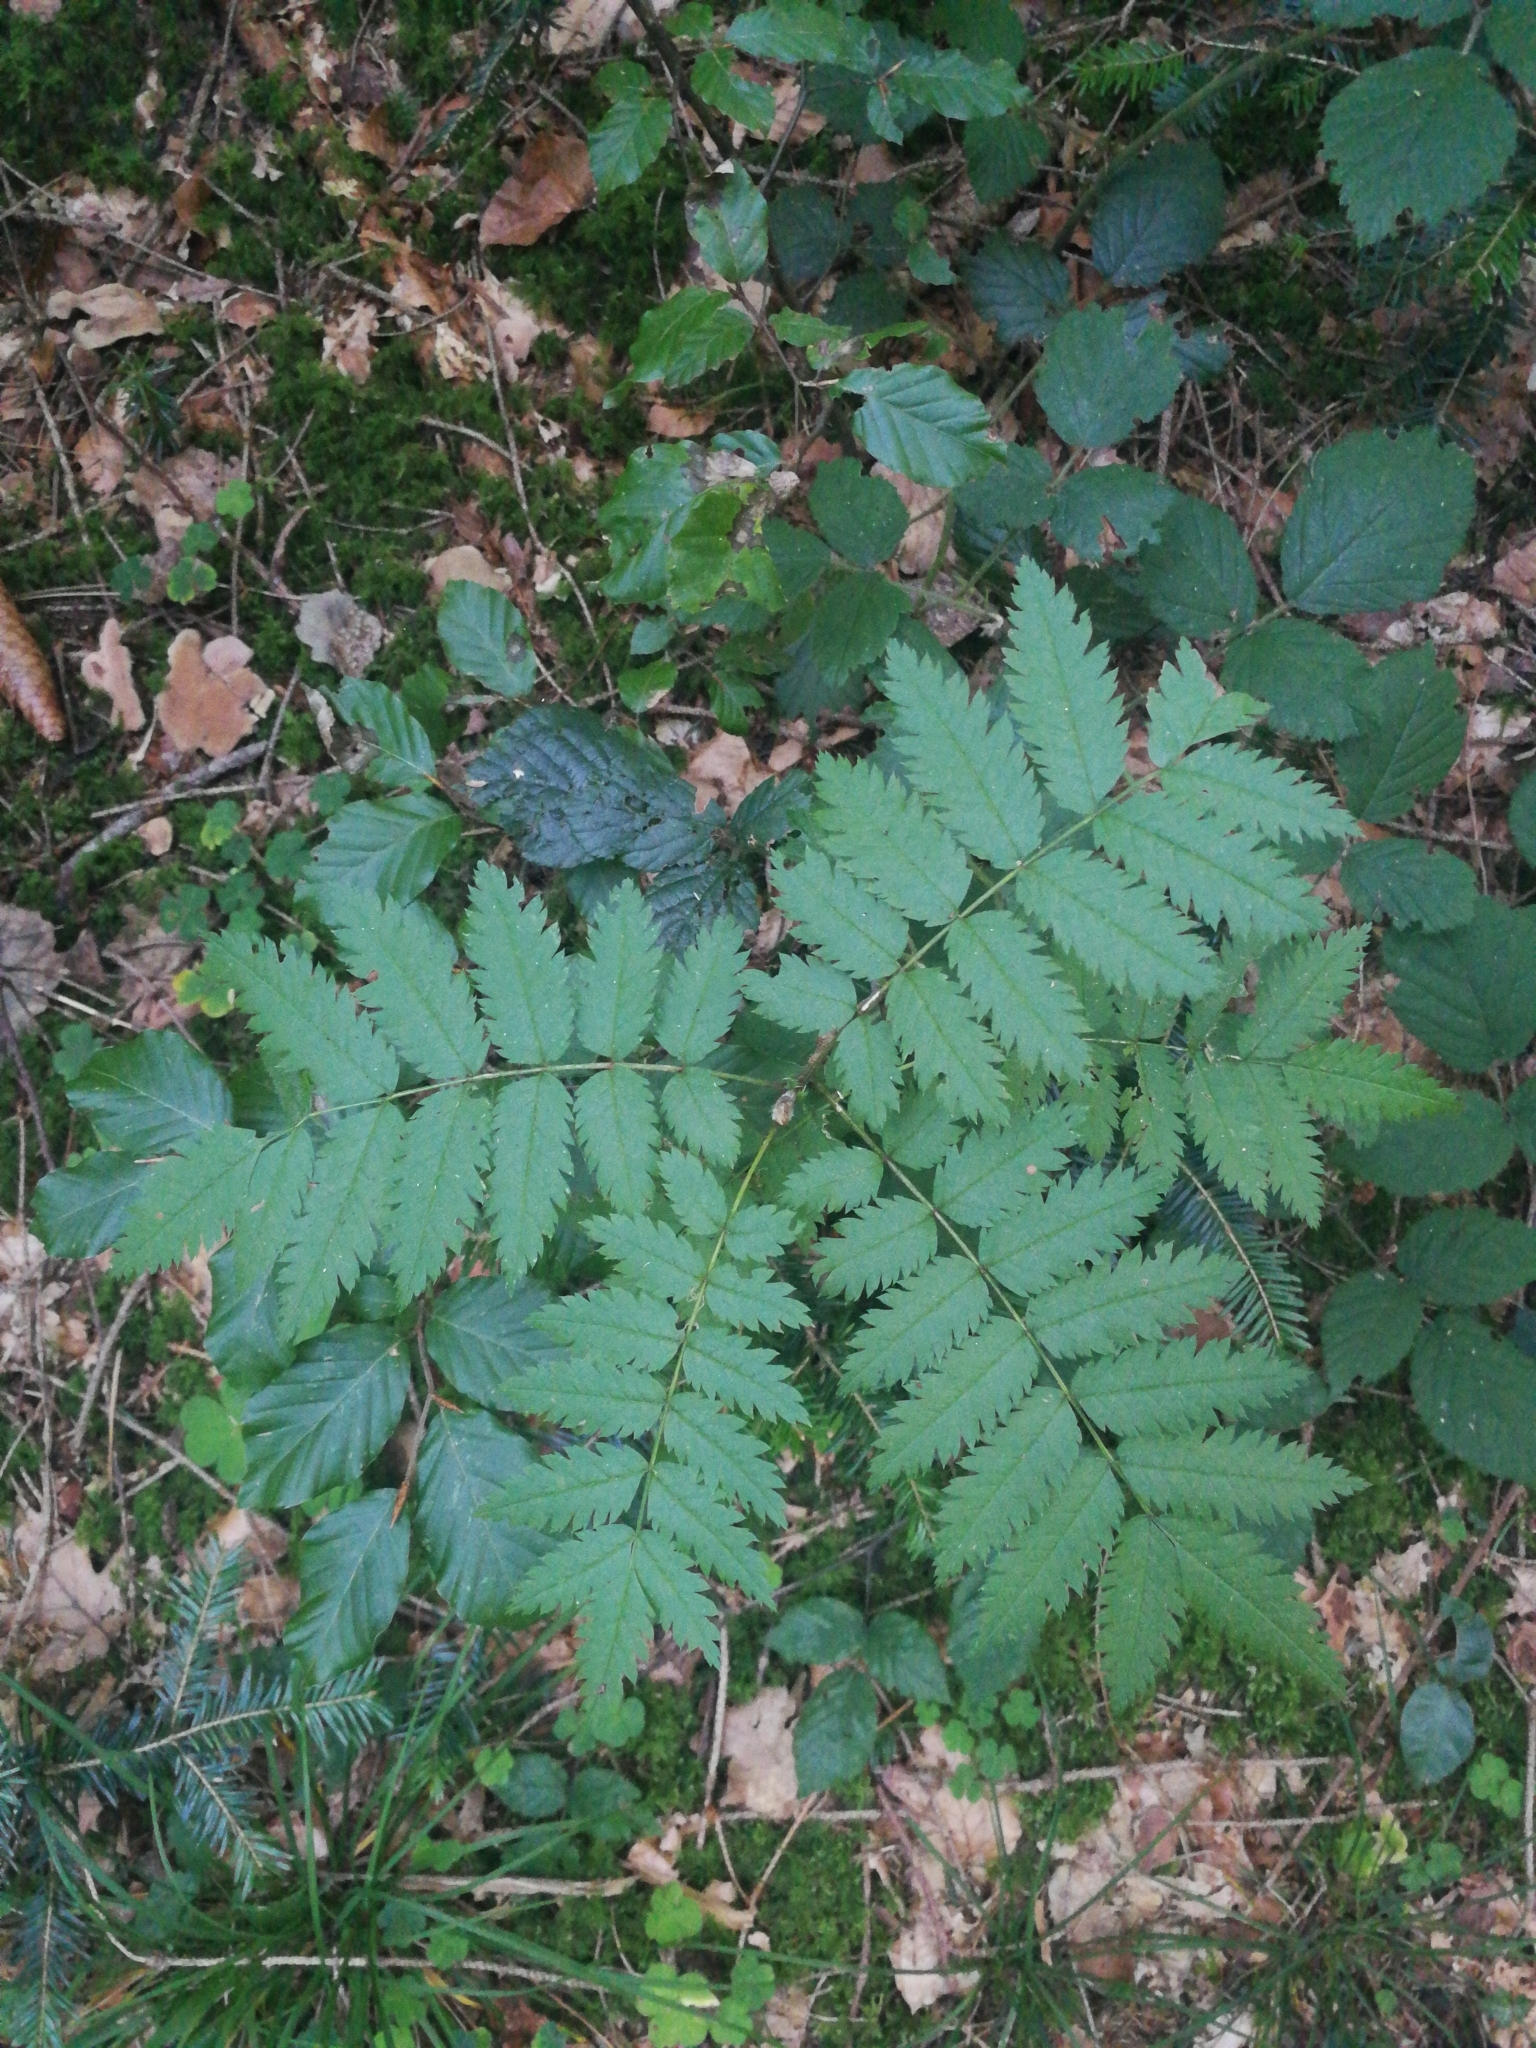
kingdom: Plantae
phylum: Tracheophyta
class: Magnoliopsida
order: Rosales
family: Rosaceae
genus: Sorbus
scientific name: Sorbus aucuparia
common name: Rowan
